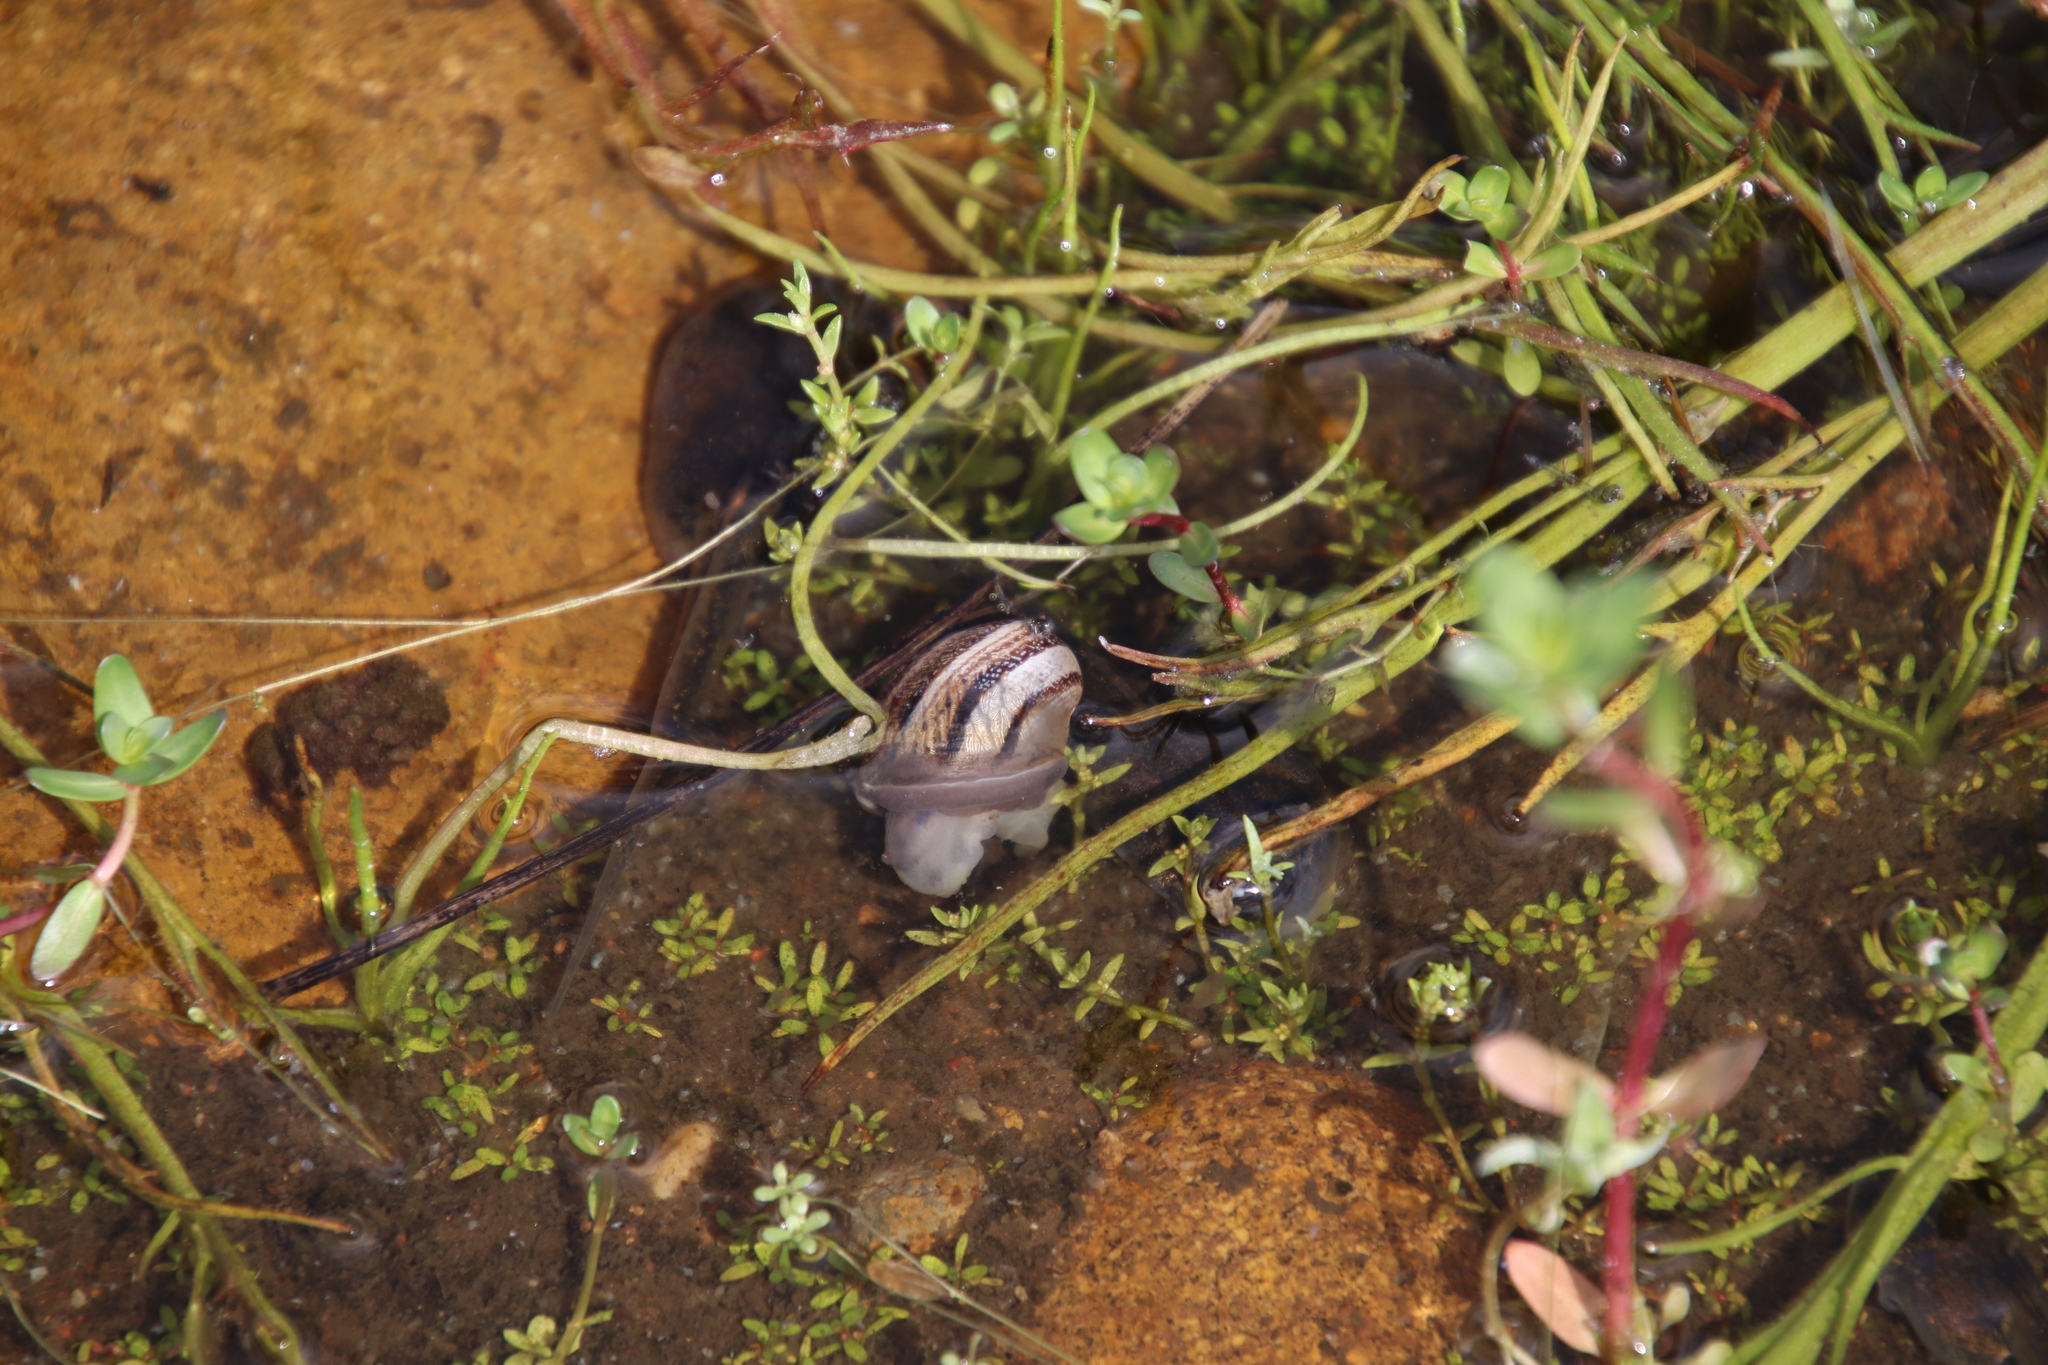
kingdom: Animalia
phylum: Mollusca
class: Gastropoda
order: Stylommatophora
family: Helicidae
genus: Otala
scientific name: Otala lactea
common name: Milk snail
